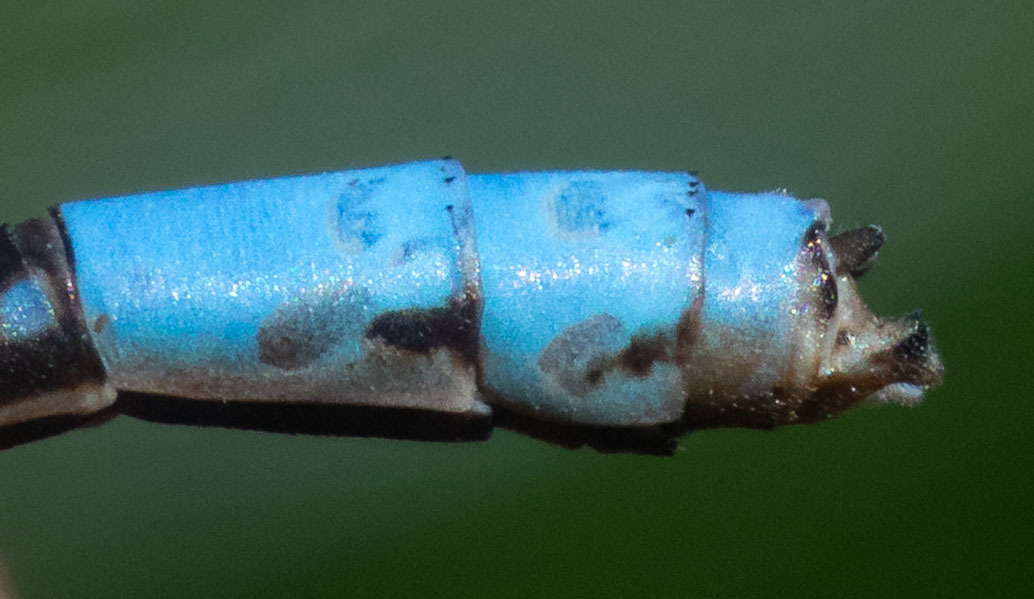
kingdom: Animalia
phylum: Arthropoda
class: Insecta
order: Odonata
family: Coenagrionidae
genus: Argia
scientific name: Argia agrioides
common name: California dancer
